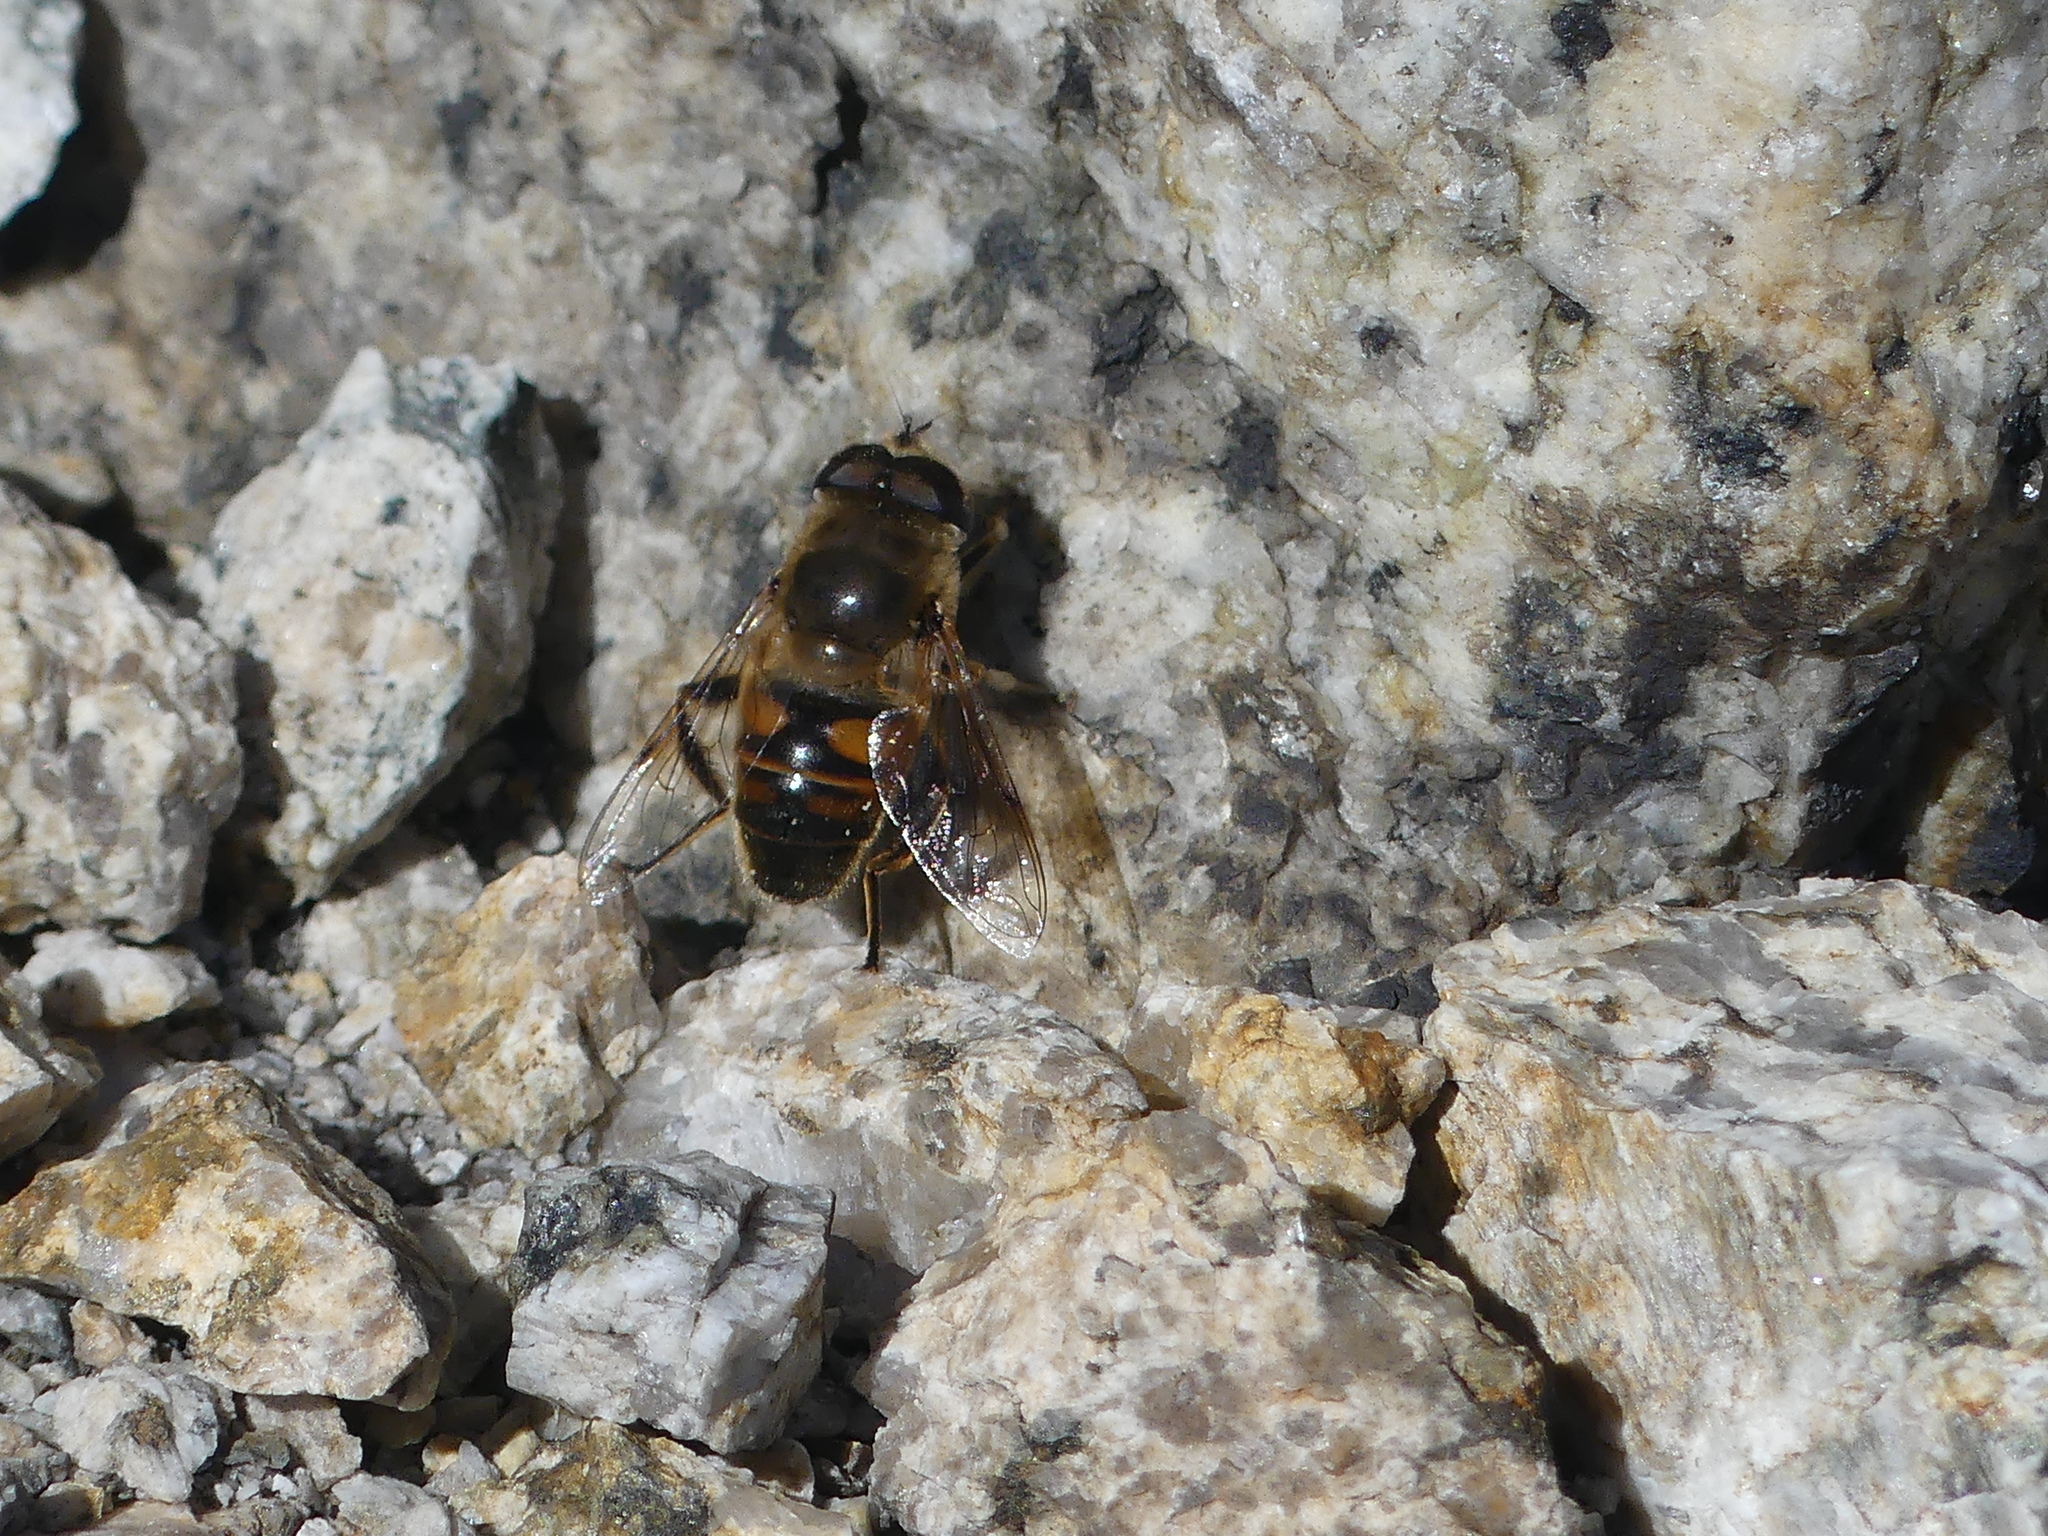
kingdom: Animalia
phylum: Arthropoda
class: Insecta
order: Diptera
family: Syrphidae
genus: Eristalis
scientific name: Eristalis tenax
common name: Drone fly
